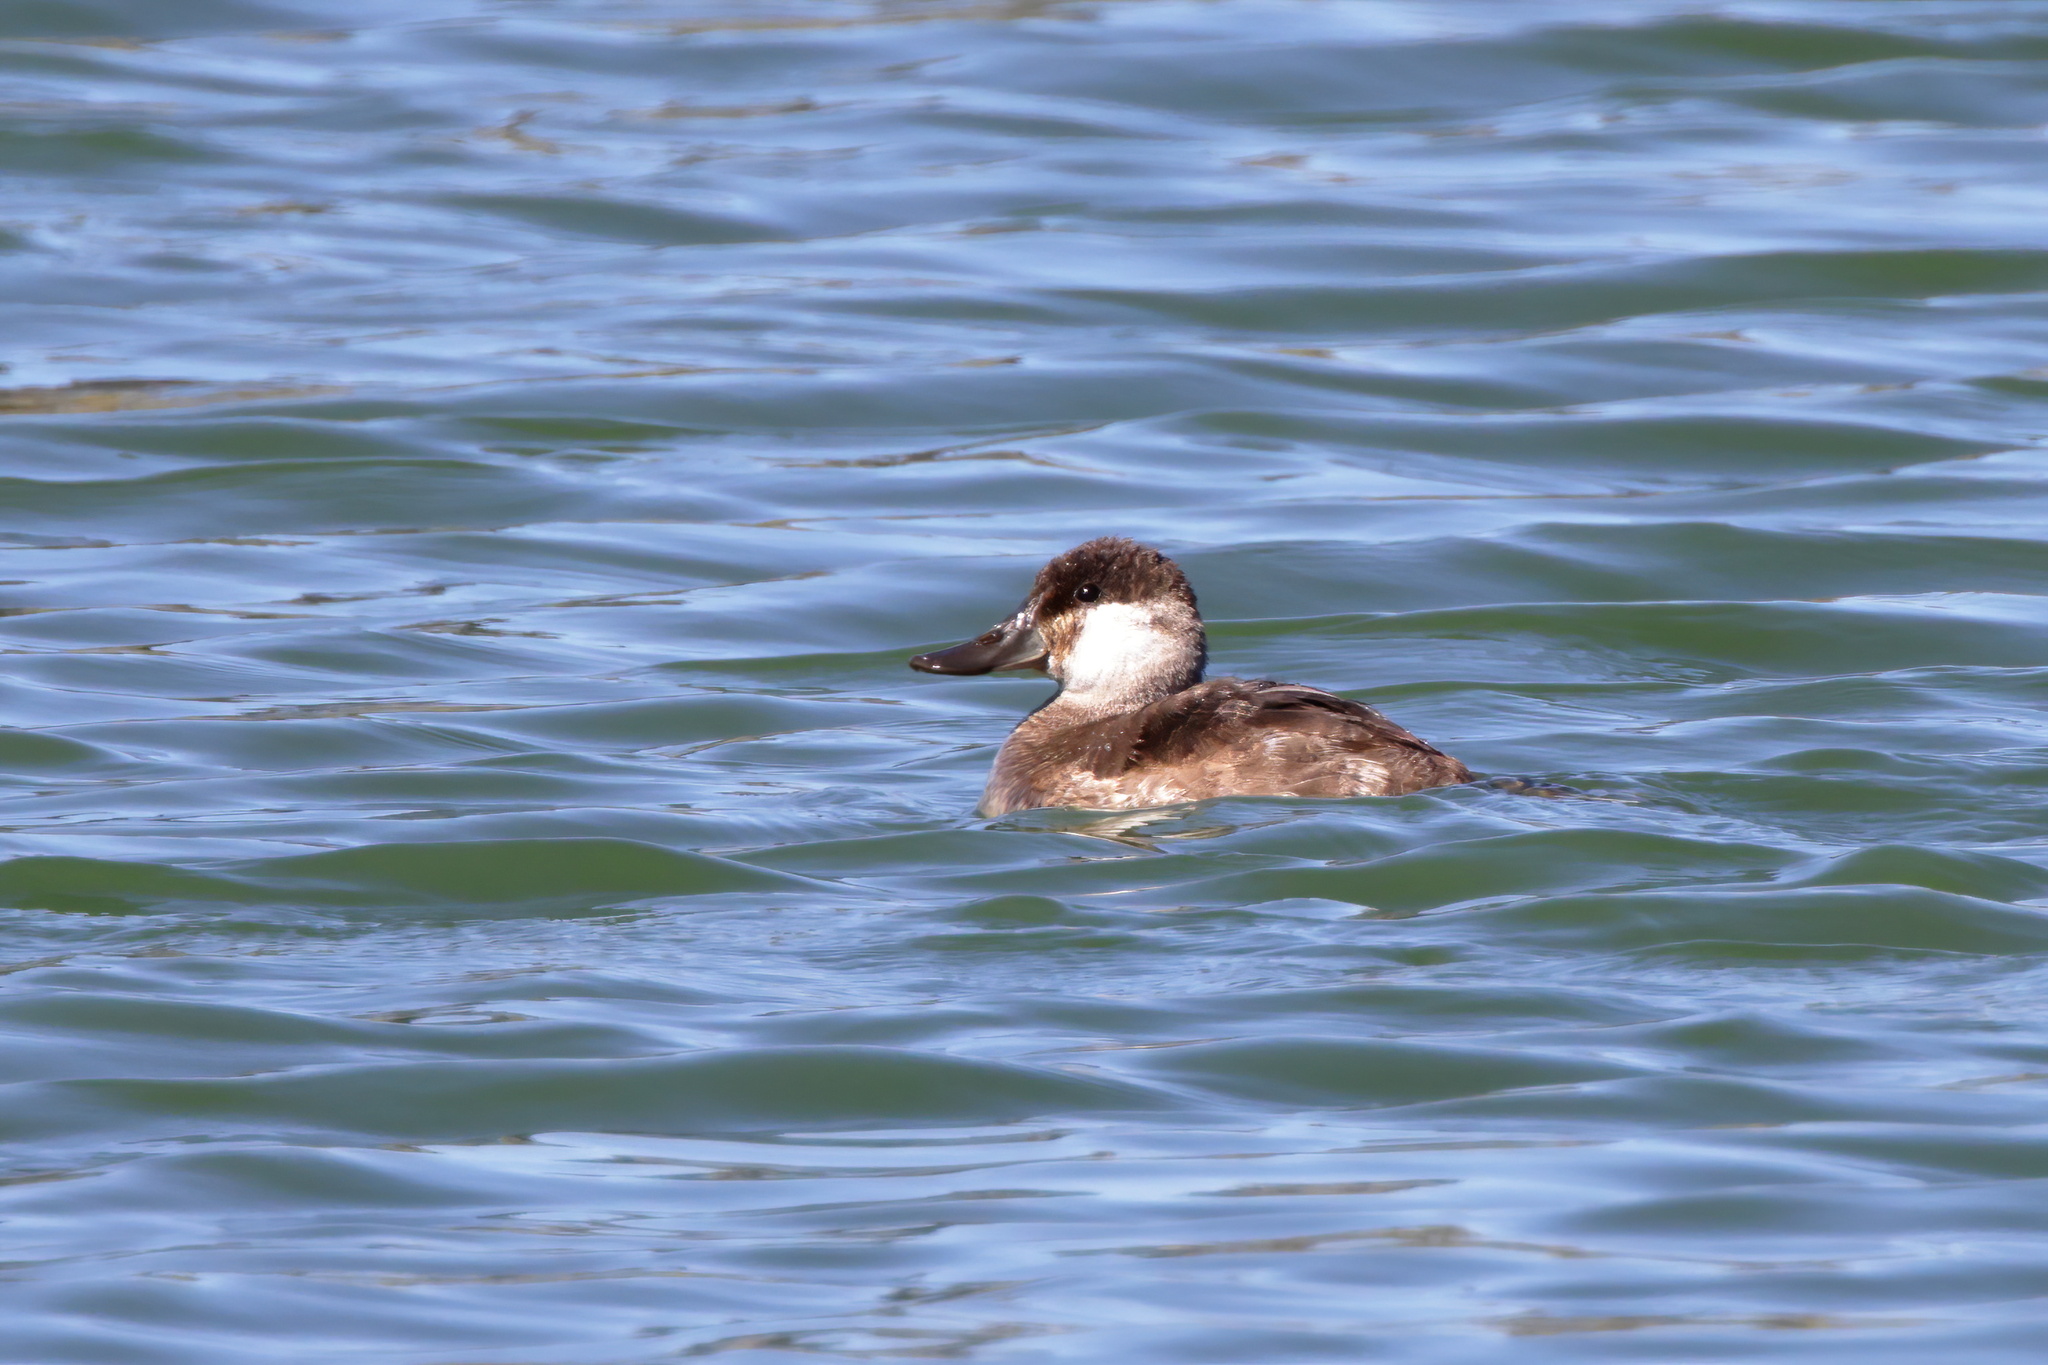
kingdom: Animalia
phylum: Chordata
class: Aves
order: Anseriformes
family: Anatidae
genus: Oxyura
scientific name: Oxyura jamaicensis
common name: Ruddy duck
